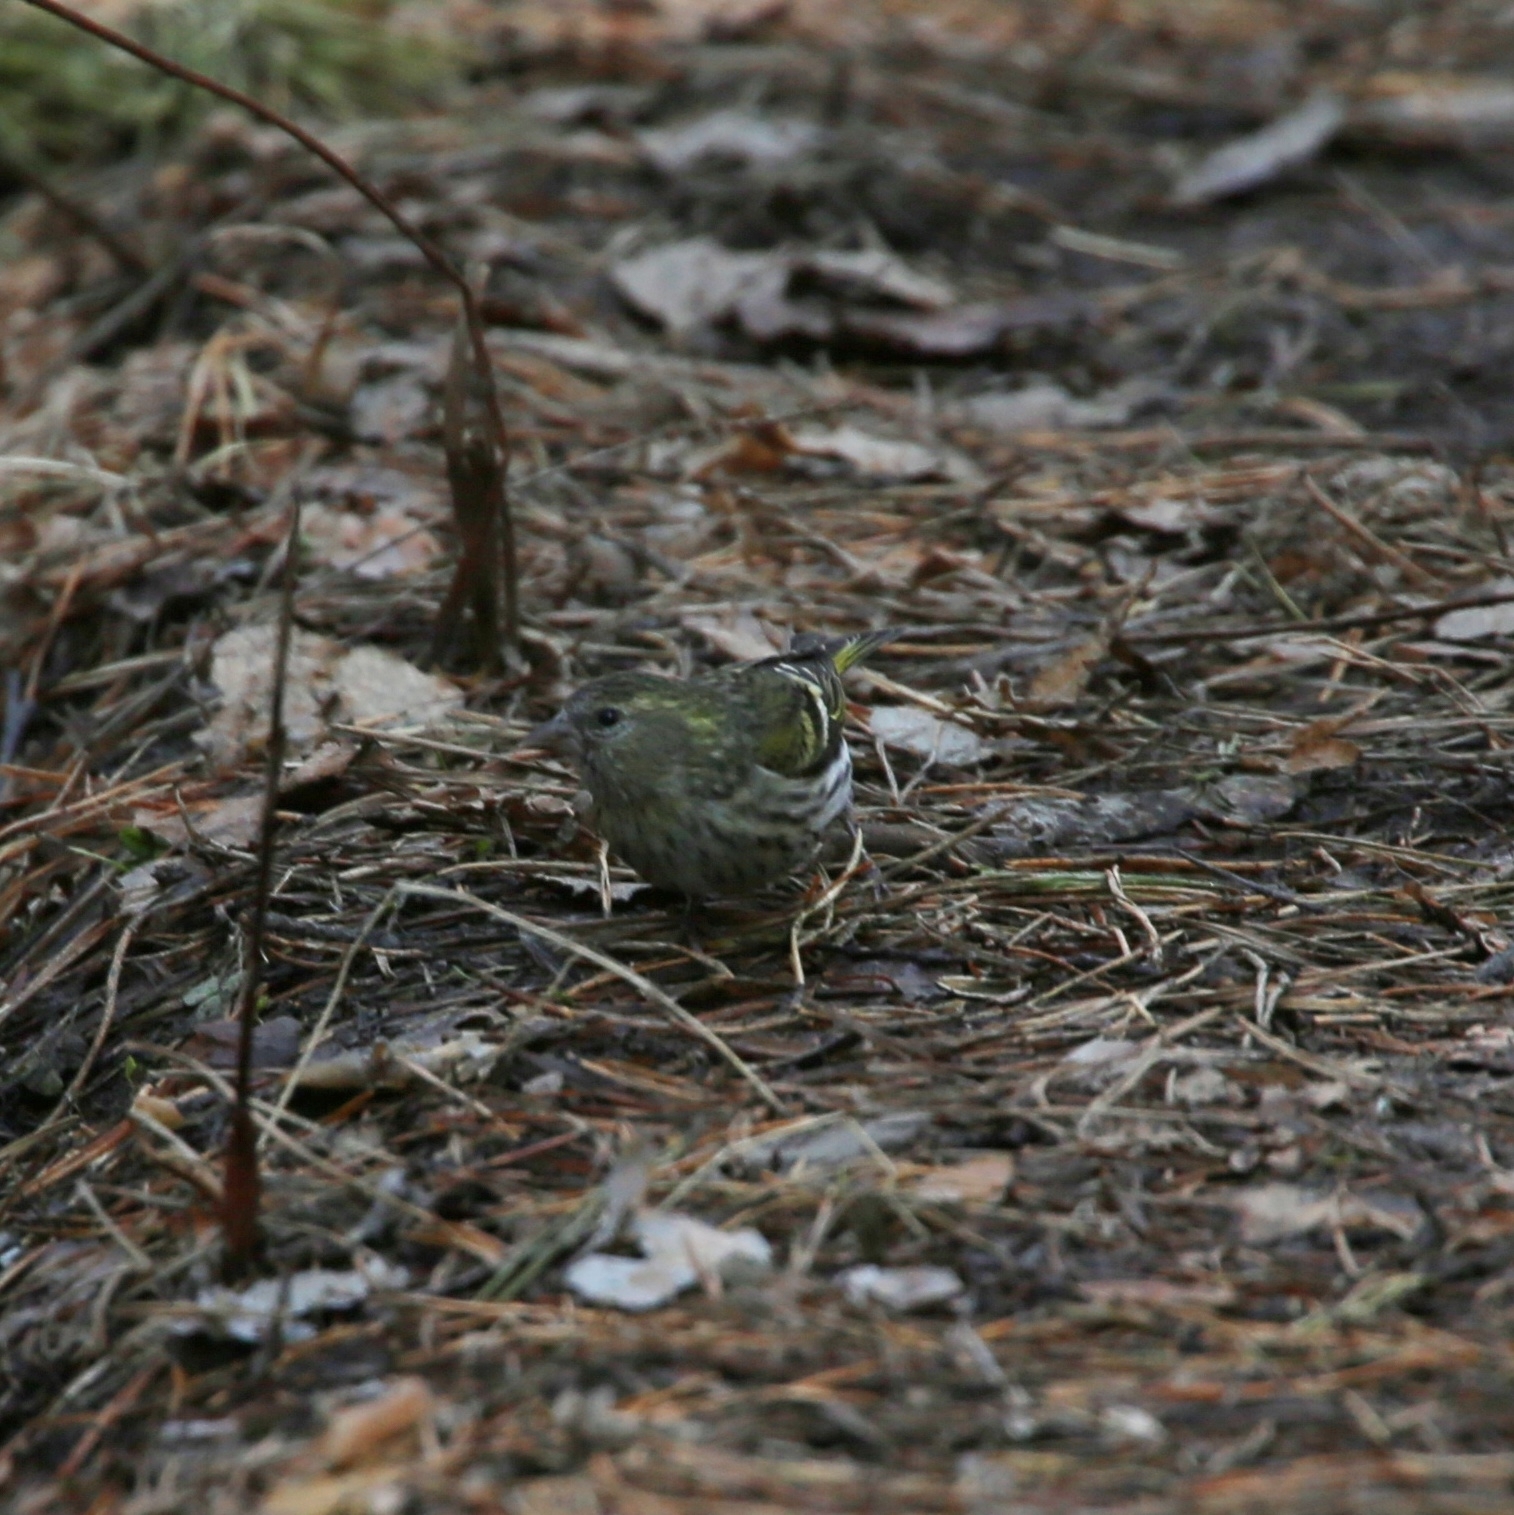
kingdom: Animalia
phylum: Chordata
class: Aves
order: Passeriformes
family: Fringillidae
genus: Spinus
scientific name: Spinus spinus
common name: Eurasian siskin
